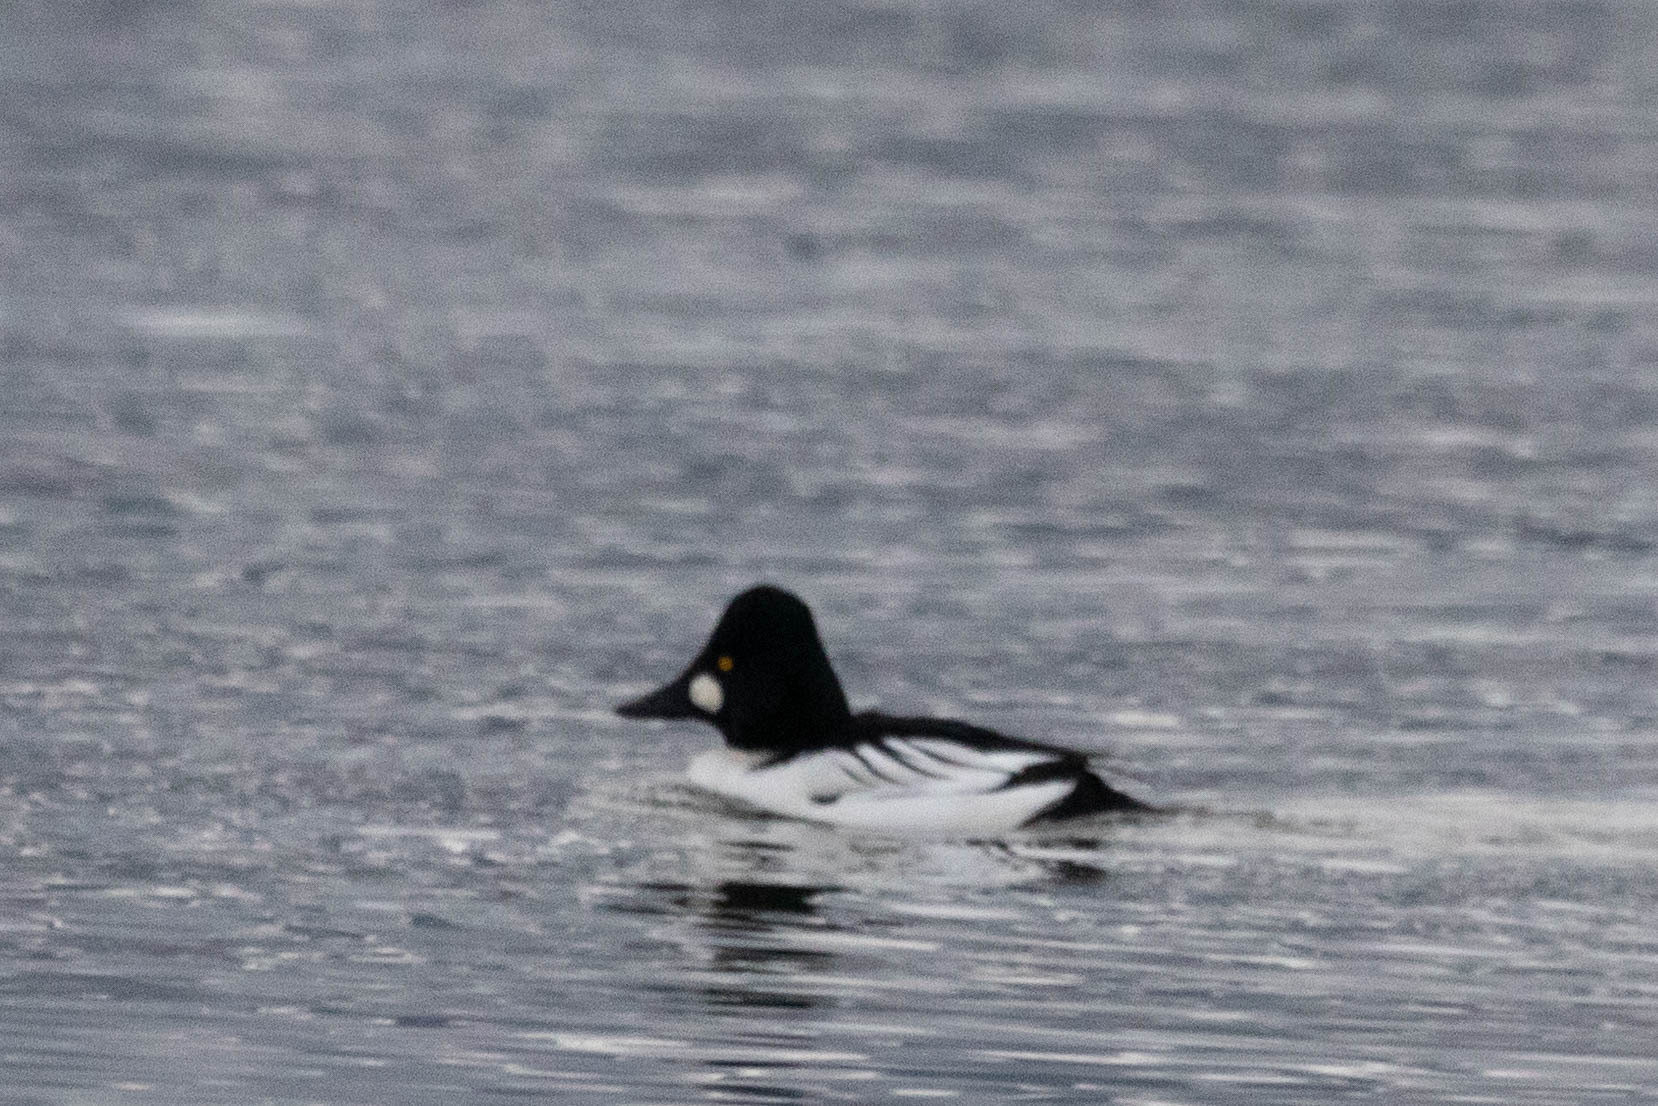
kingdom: Animalia
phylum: Chordata
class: Aves
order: Anseriformes
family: Anatidae
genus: Bucephala
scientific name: Bucephala clangula
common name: Common goldeneye
